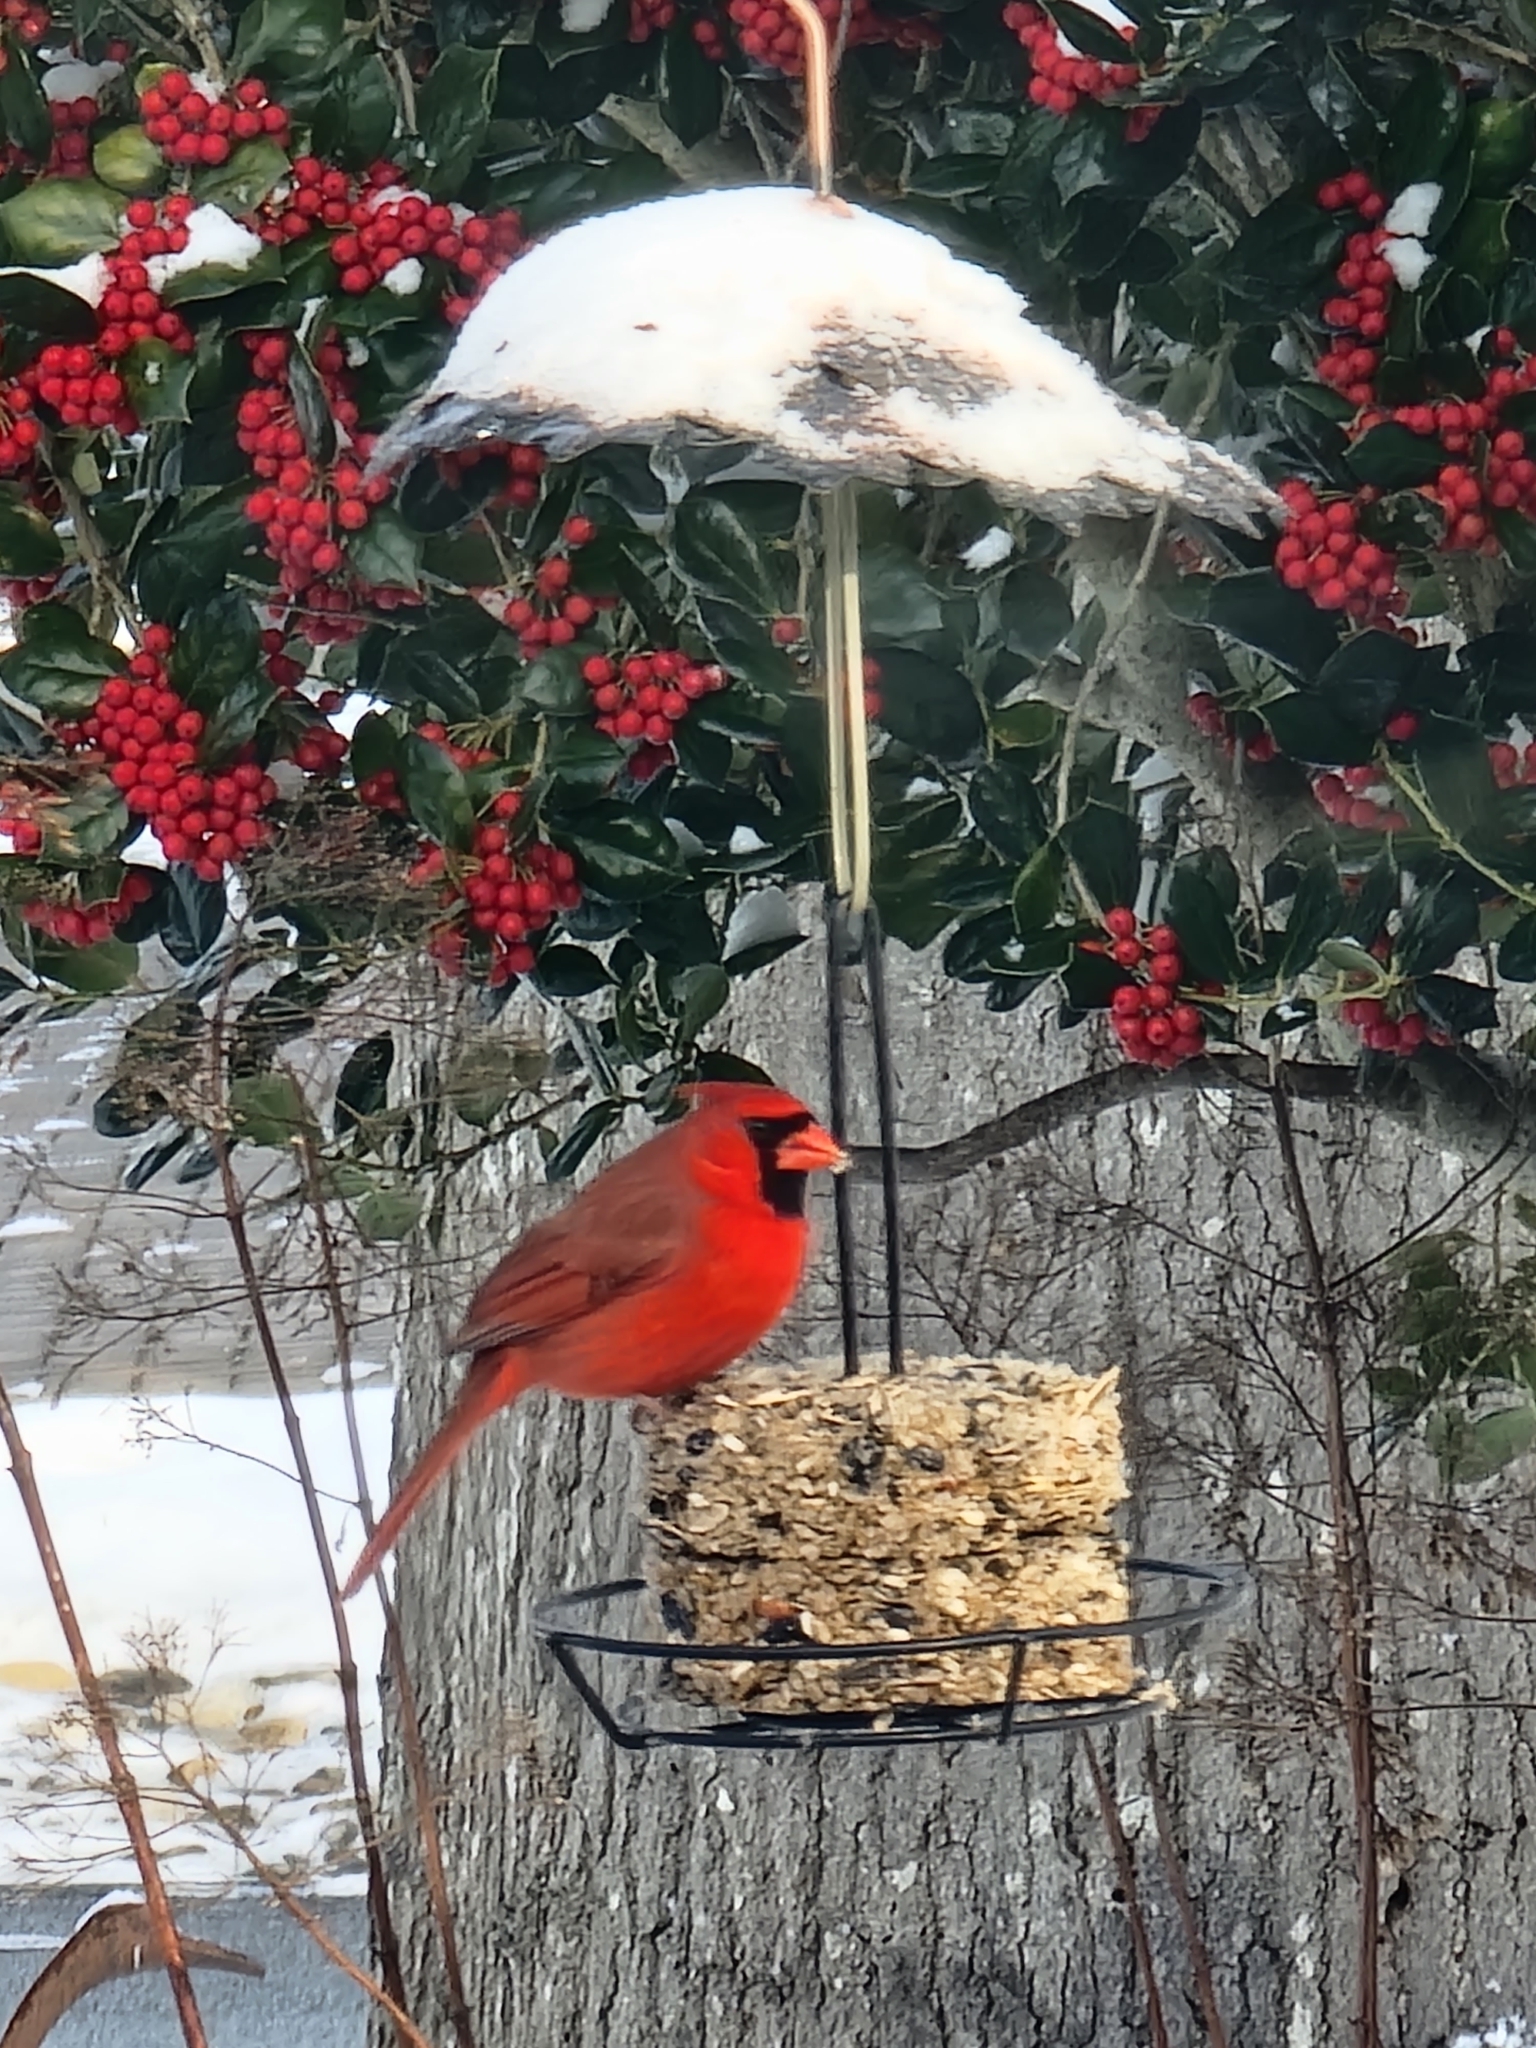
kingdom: Animalia
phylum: Chordata
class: Aves
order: Passeriformes
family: Cardinalidae
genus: Cardinalis
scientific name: Cardinalis cardinalis
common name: Northern cardinal
